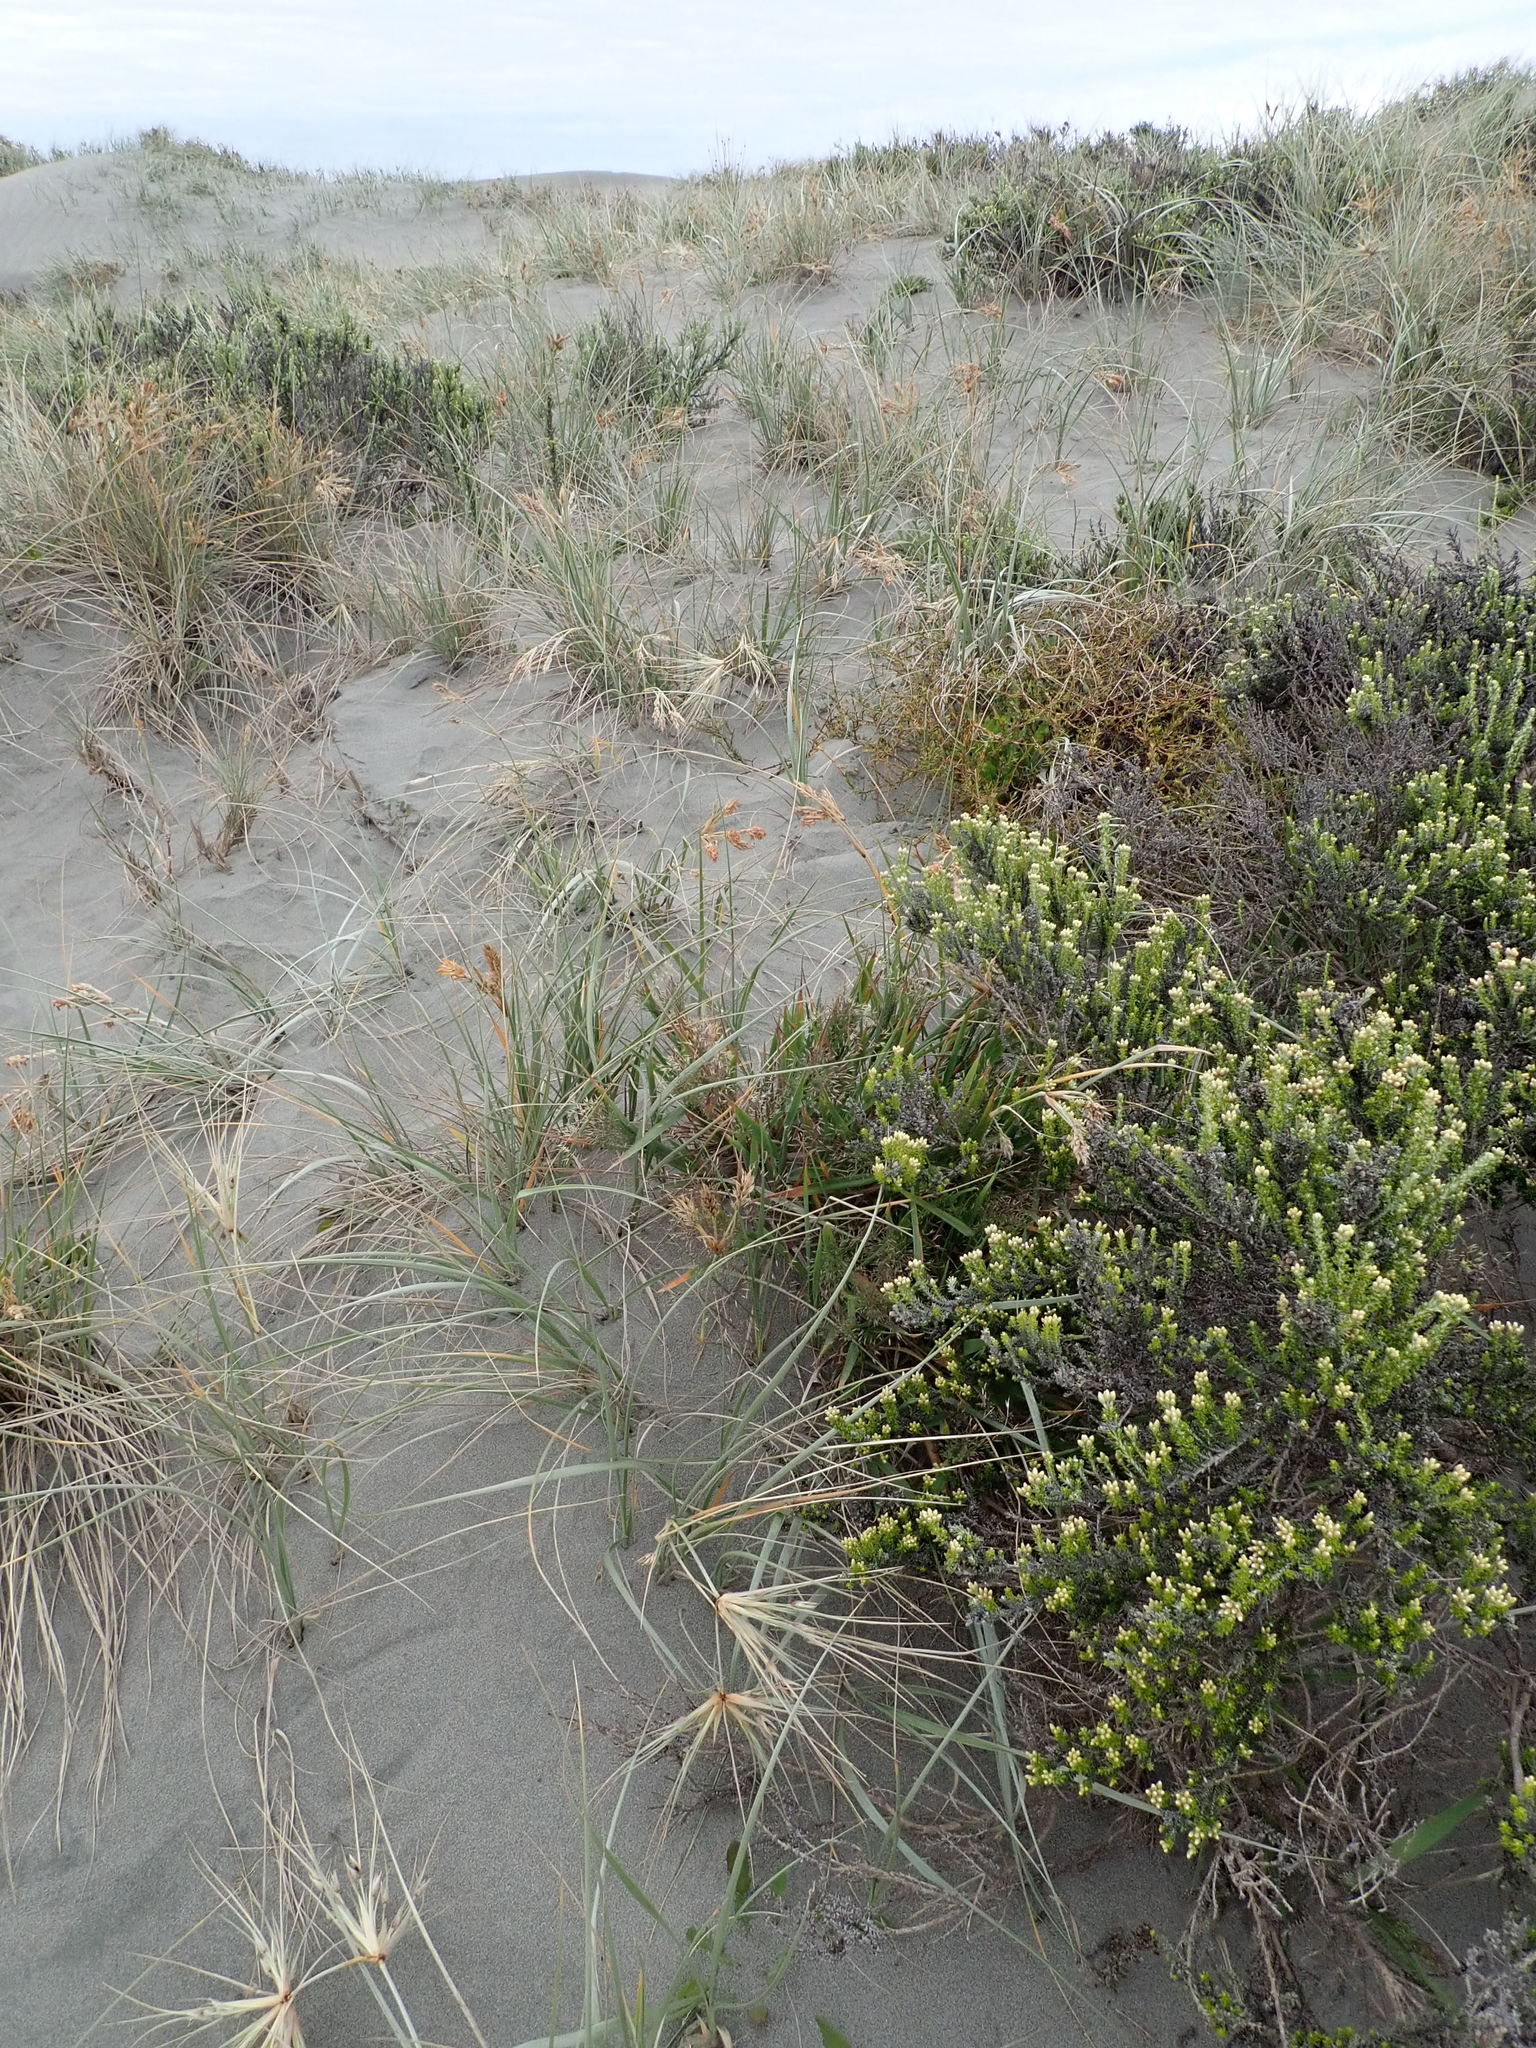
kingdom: Plantae
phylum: Tracheophyta
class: Liliopsida
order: Poales
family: Poaceae
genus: Lachnagrostis
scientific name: Lachnagrostis billardierei
